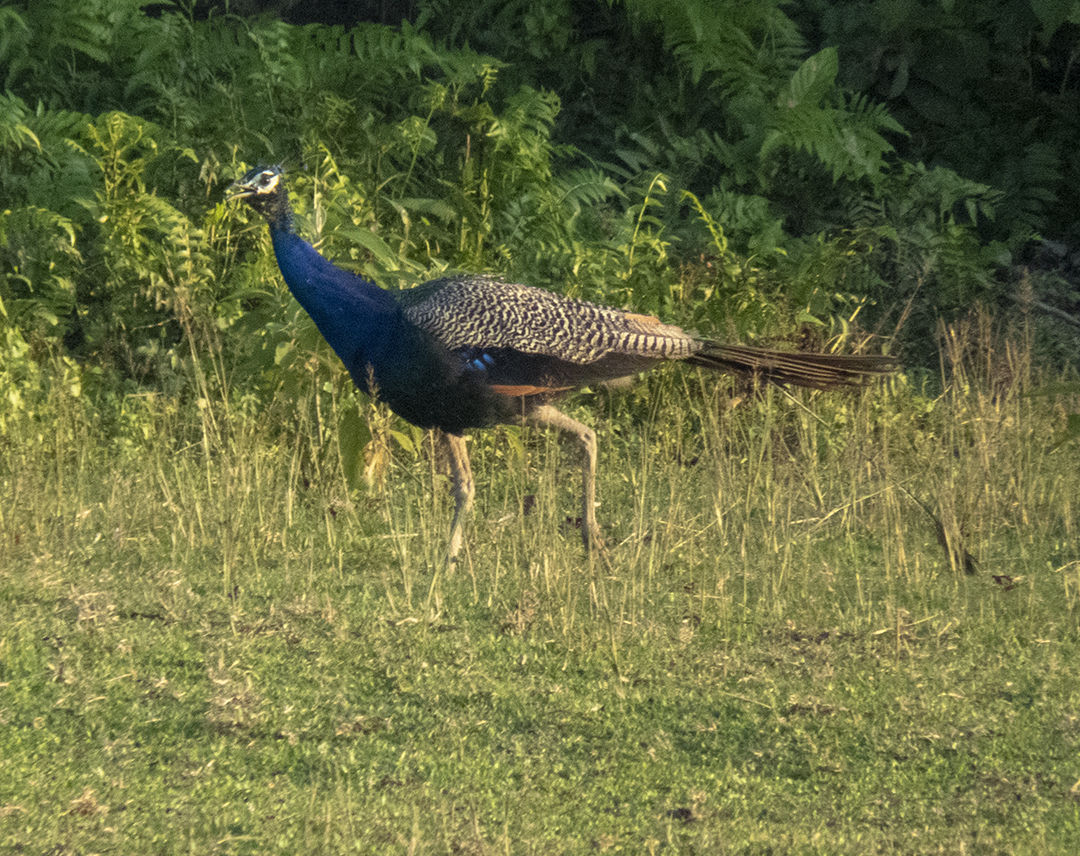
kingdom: Animalia
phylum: Chordata
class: Aves
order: Galliformes
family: Phasianidae
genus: Pavo
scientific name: Pavo cristatus
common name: Indian peafowl
